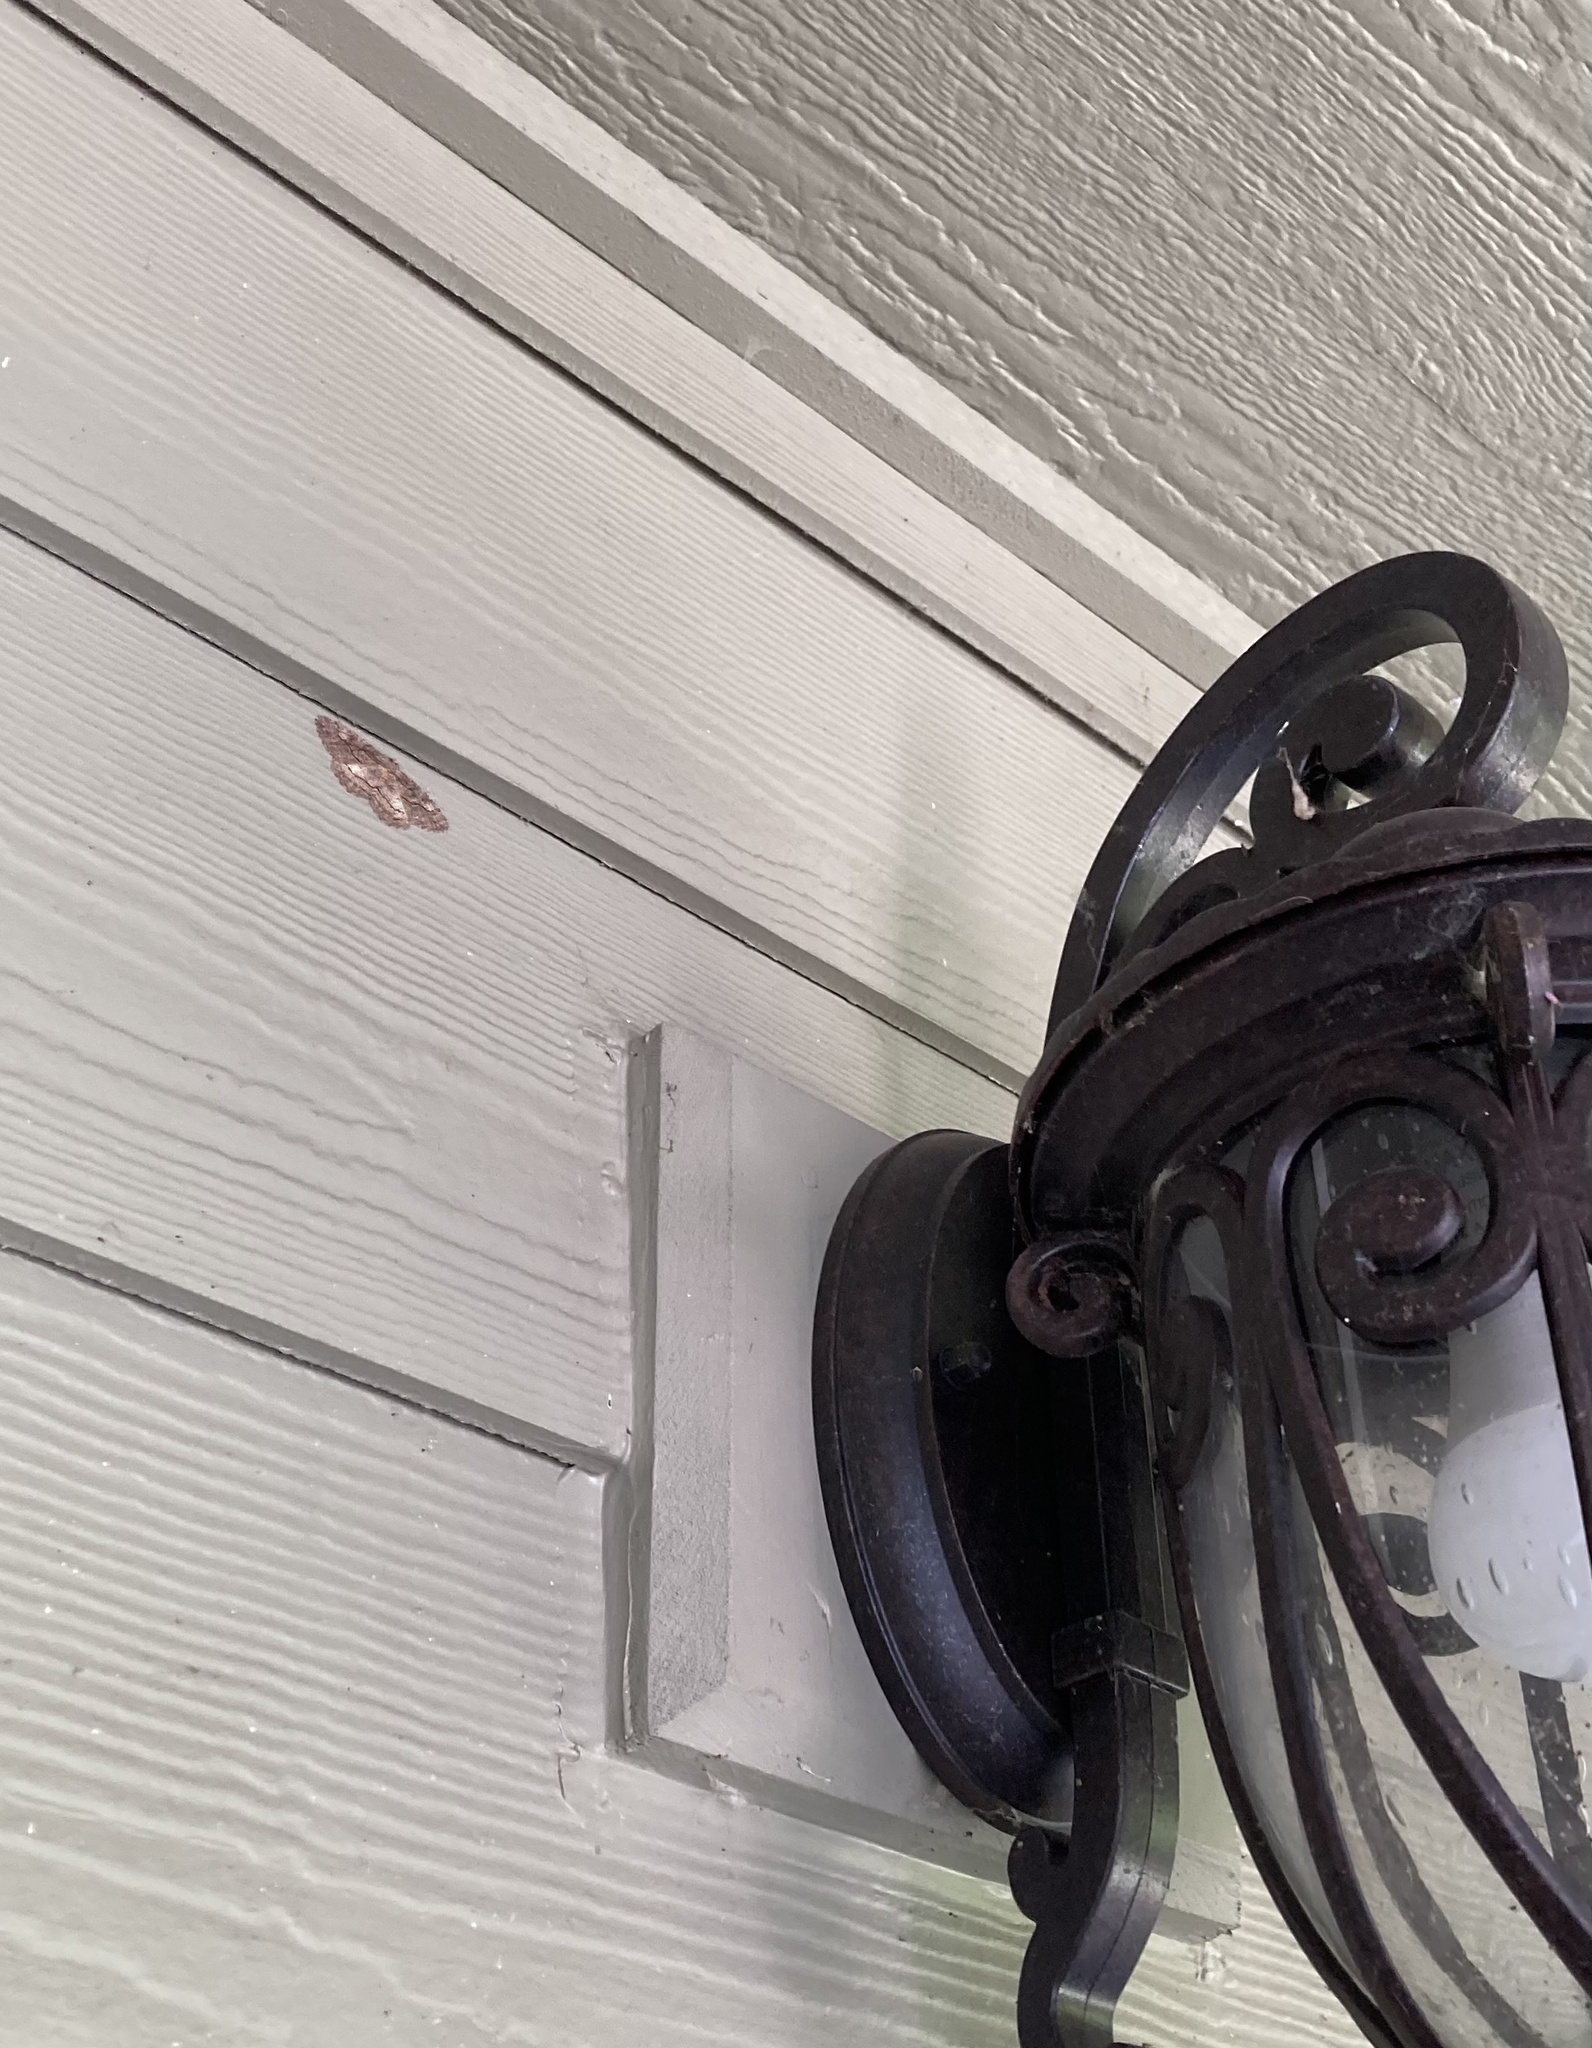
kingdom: Animalia
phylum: Arthropoda
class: Insecta
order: Lepidoptera
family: Geometridae
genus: Neoalcis
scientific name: Neoalcis californiaria
